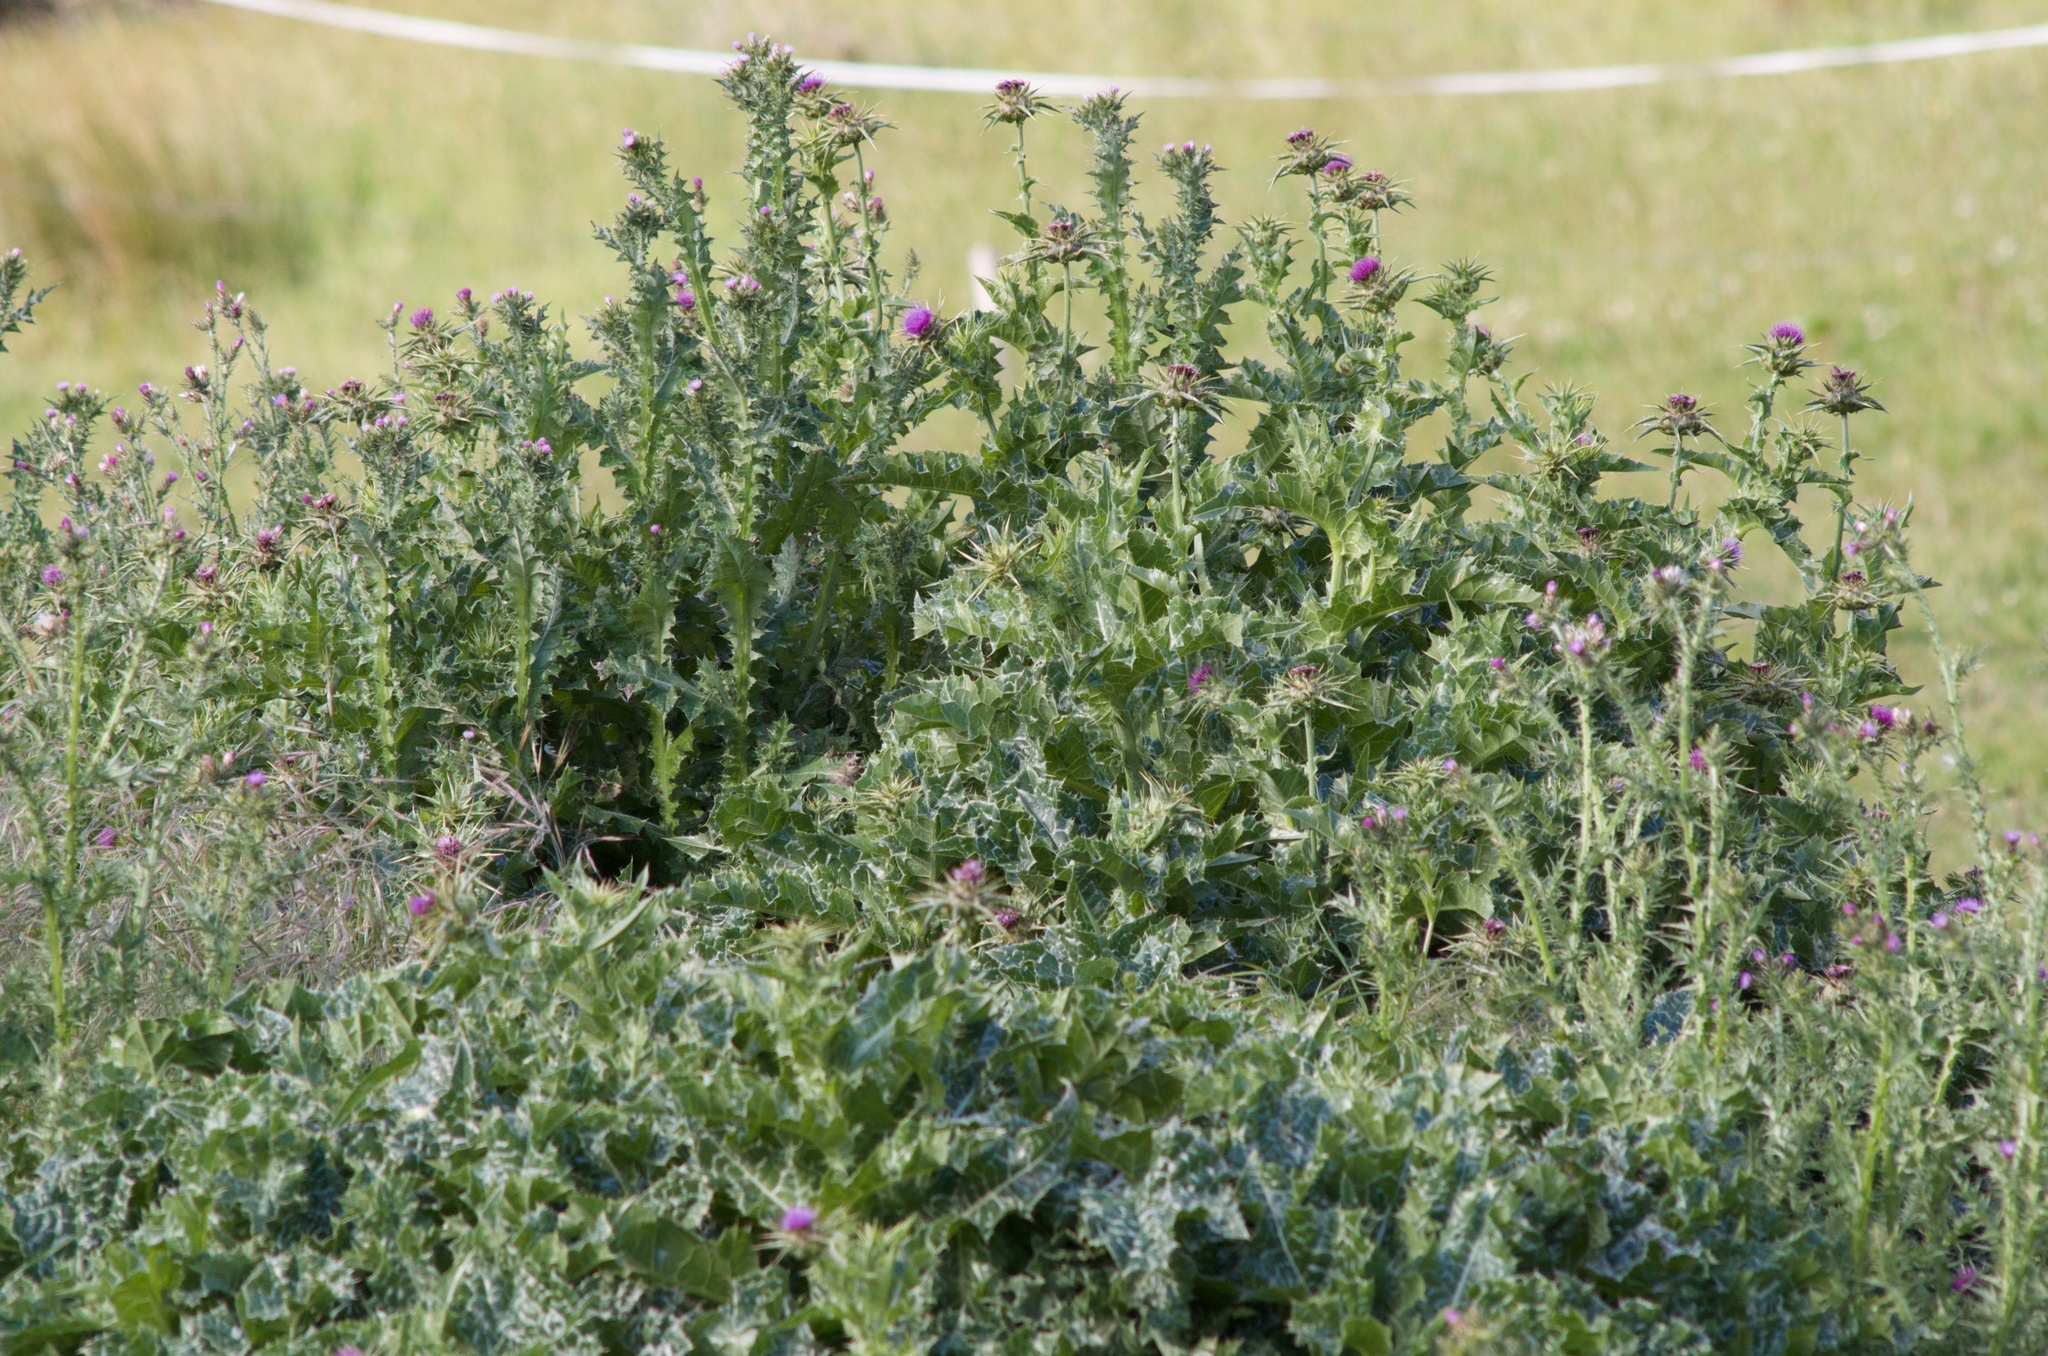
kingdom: Plantae
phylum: Tracheophyta
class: Magnoliopsida
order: Asterales
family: Asteraceae
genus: Silybum
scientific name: Silybum marianum
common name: Milk thistle
